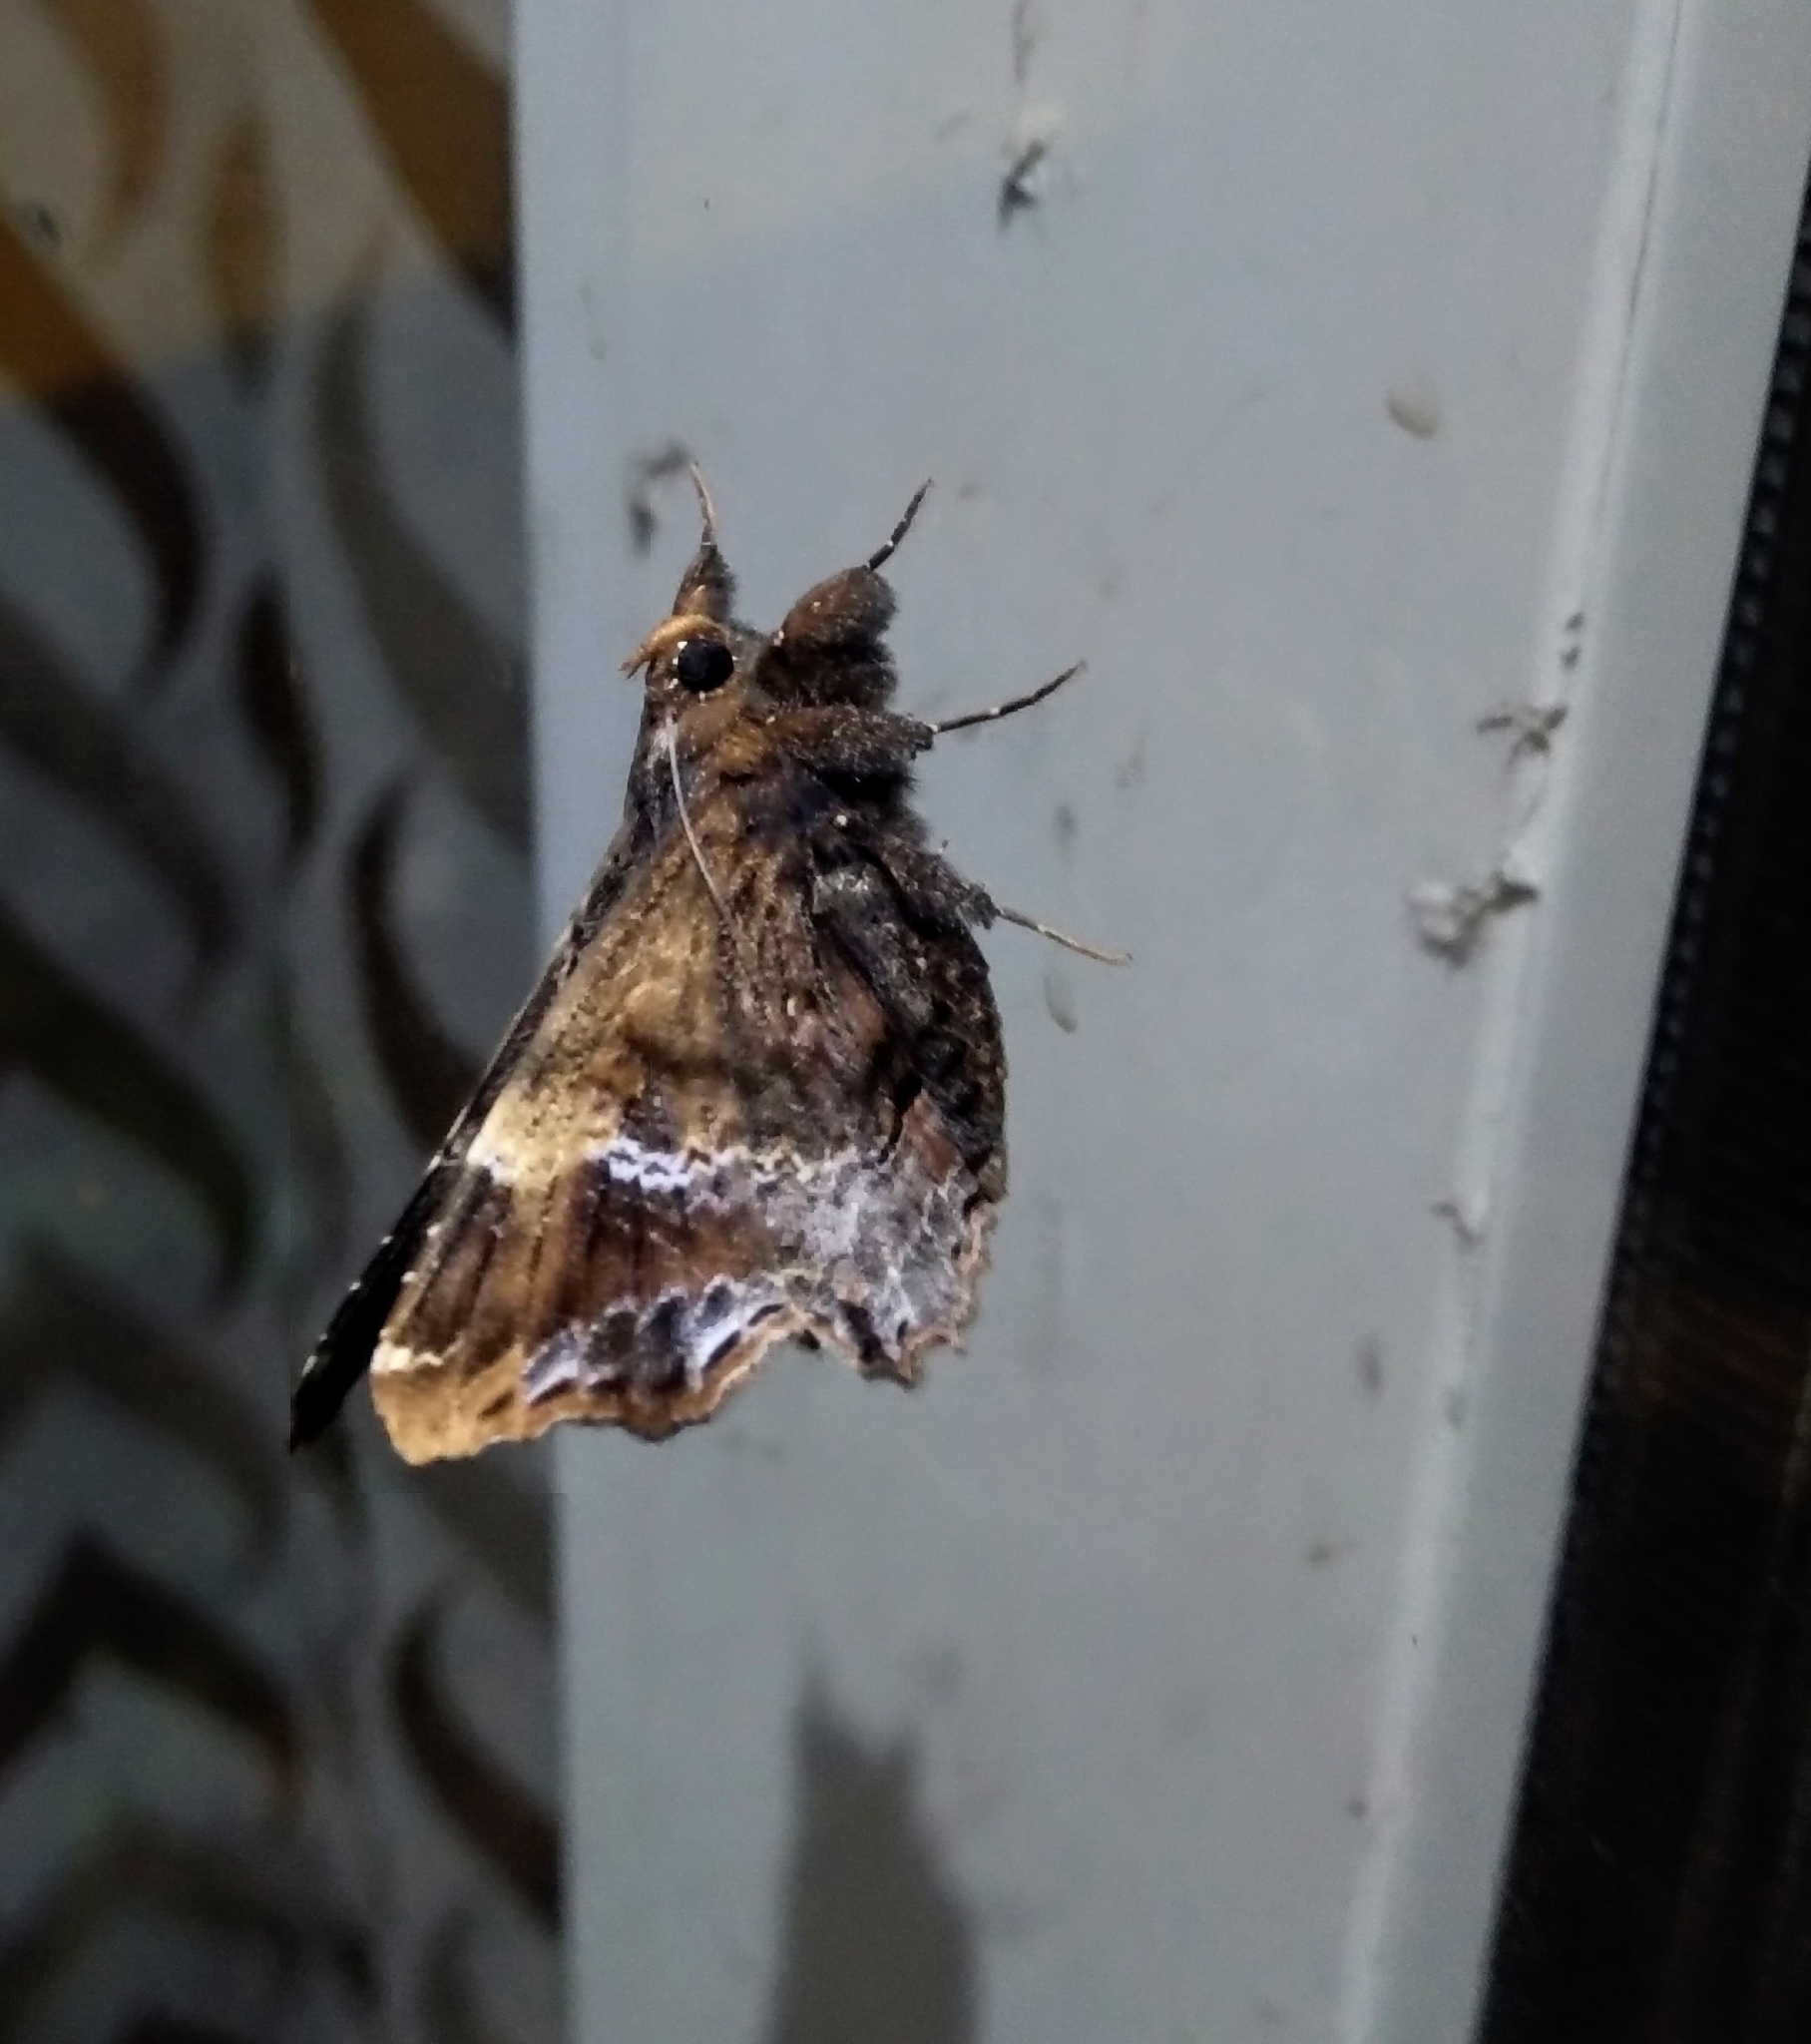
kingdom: Animalia
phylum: Arthropoda
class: Insecta
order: Lepidoptera
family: Erebidae
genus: Lacera
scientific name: Lacera procellosa
